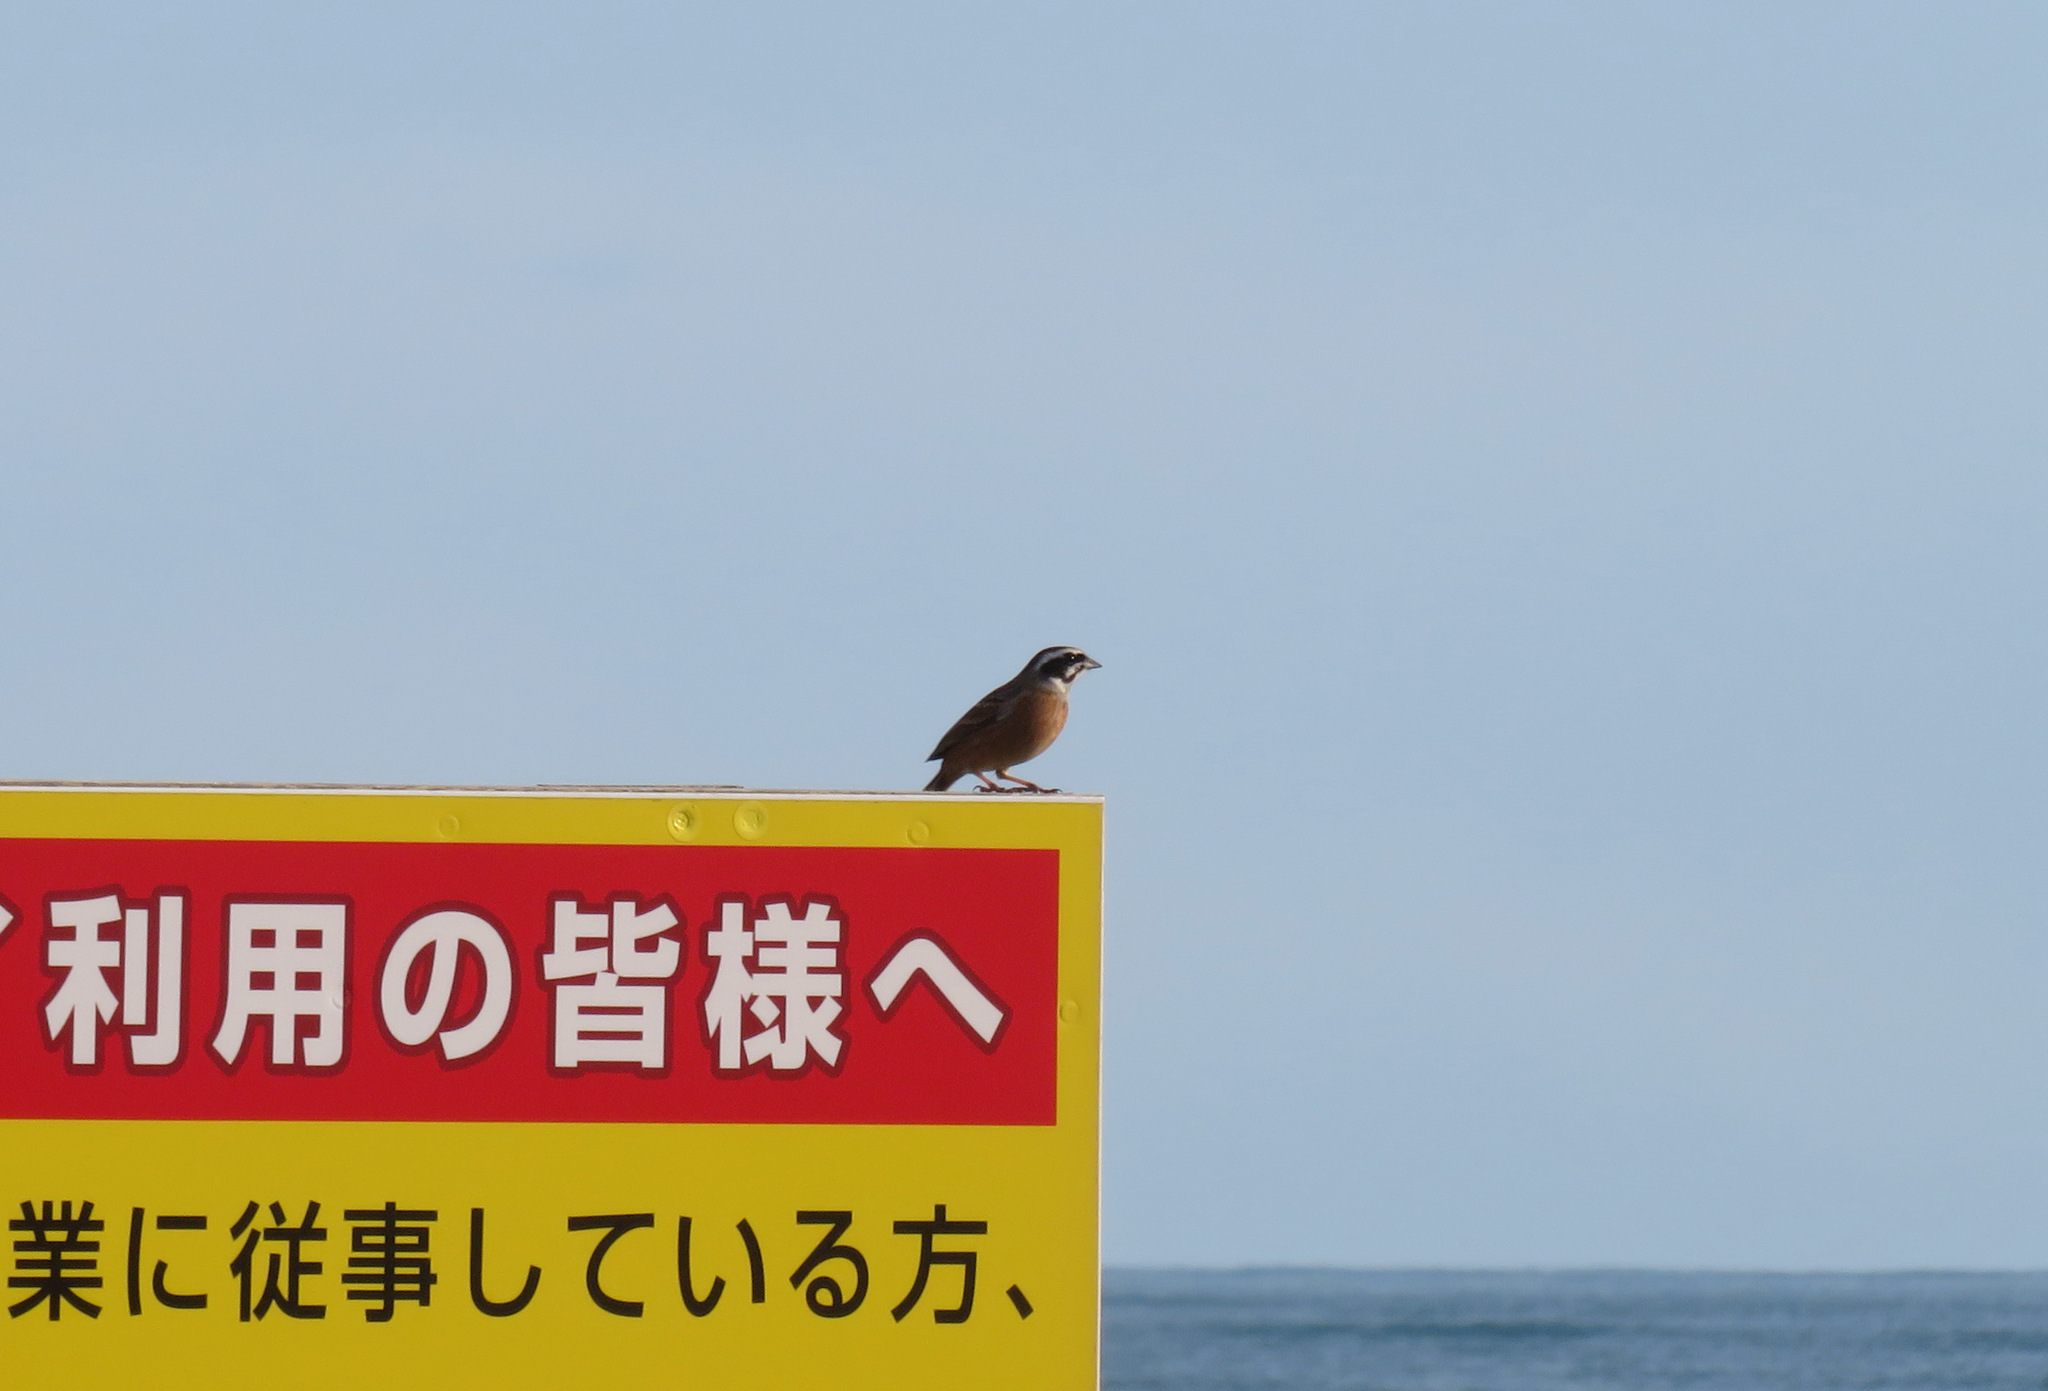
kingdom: Animalia
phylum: Chordata
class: Aves
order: Passeriformes
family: Emberizidae
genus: Emberiza
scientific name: Emberiza cioides
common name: Meadow bunting
